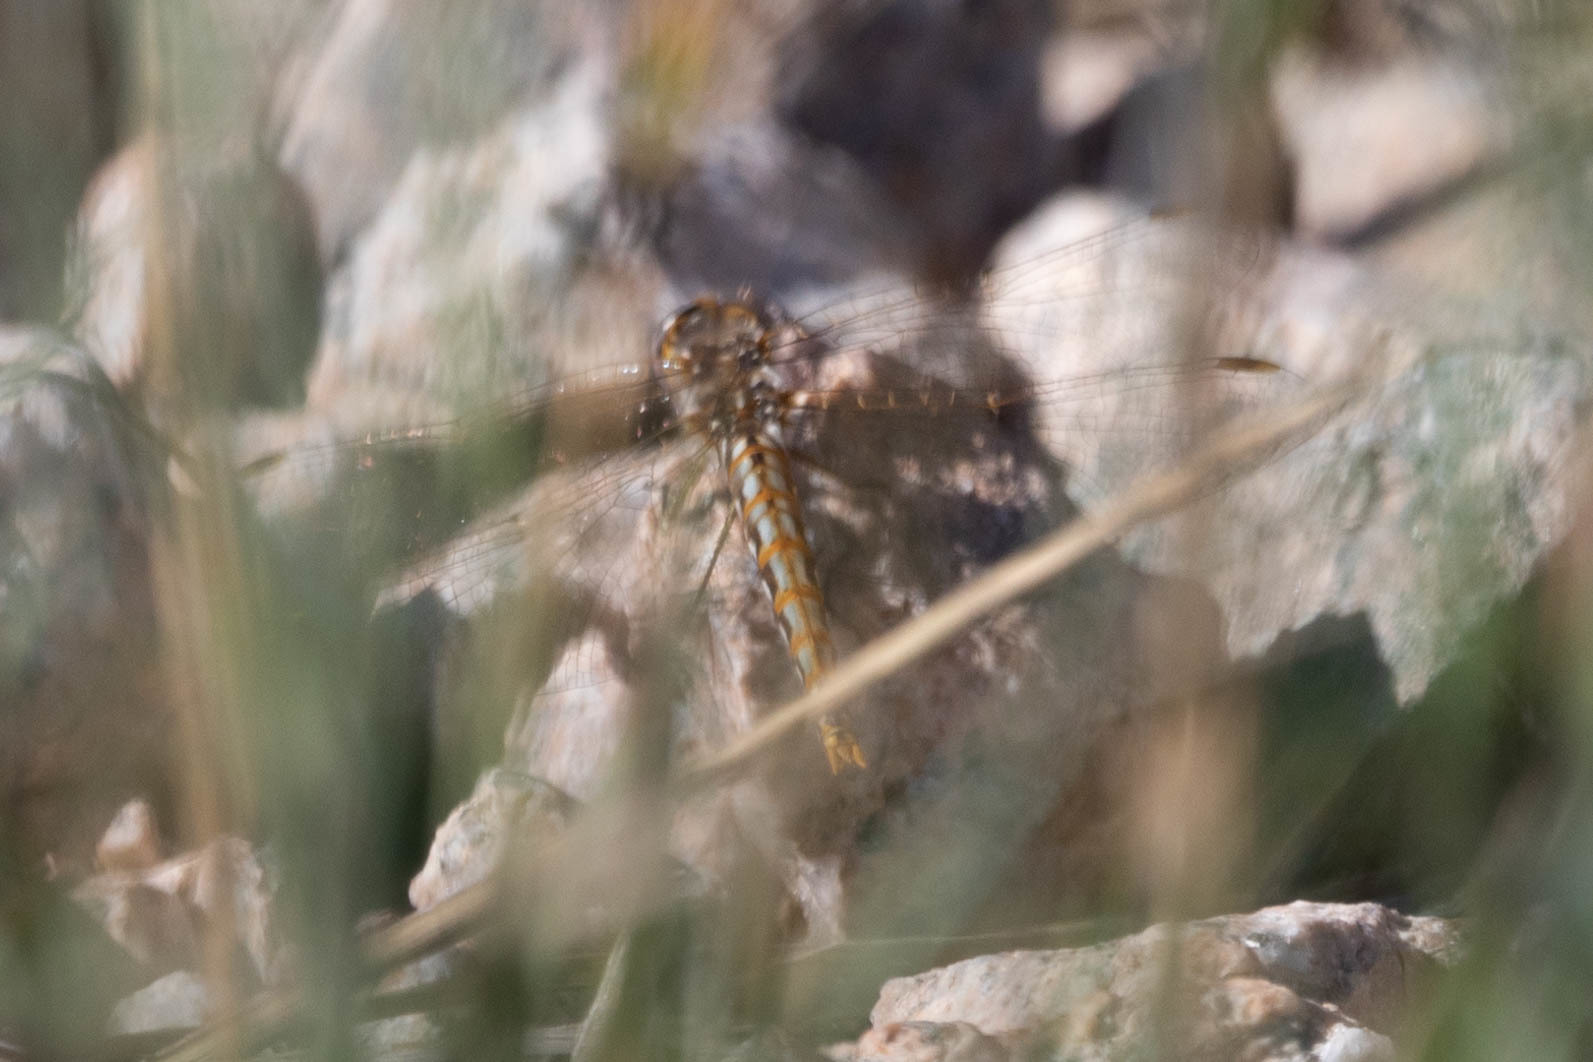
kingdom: Animalia
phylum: Arthropoda
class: Insecta
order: Odonata
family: Libellulidae
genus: Sympetrum
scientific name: Sympetrum corruptum
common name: Variegated meadowhawk
